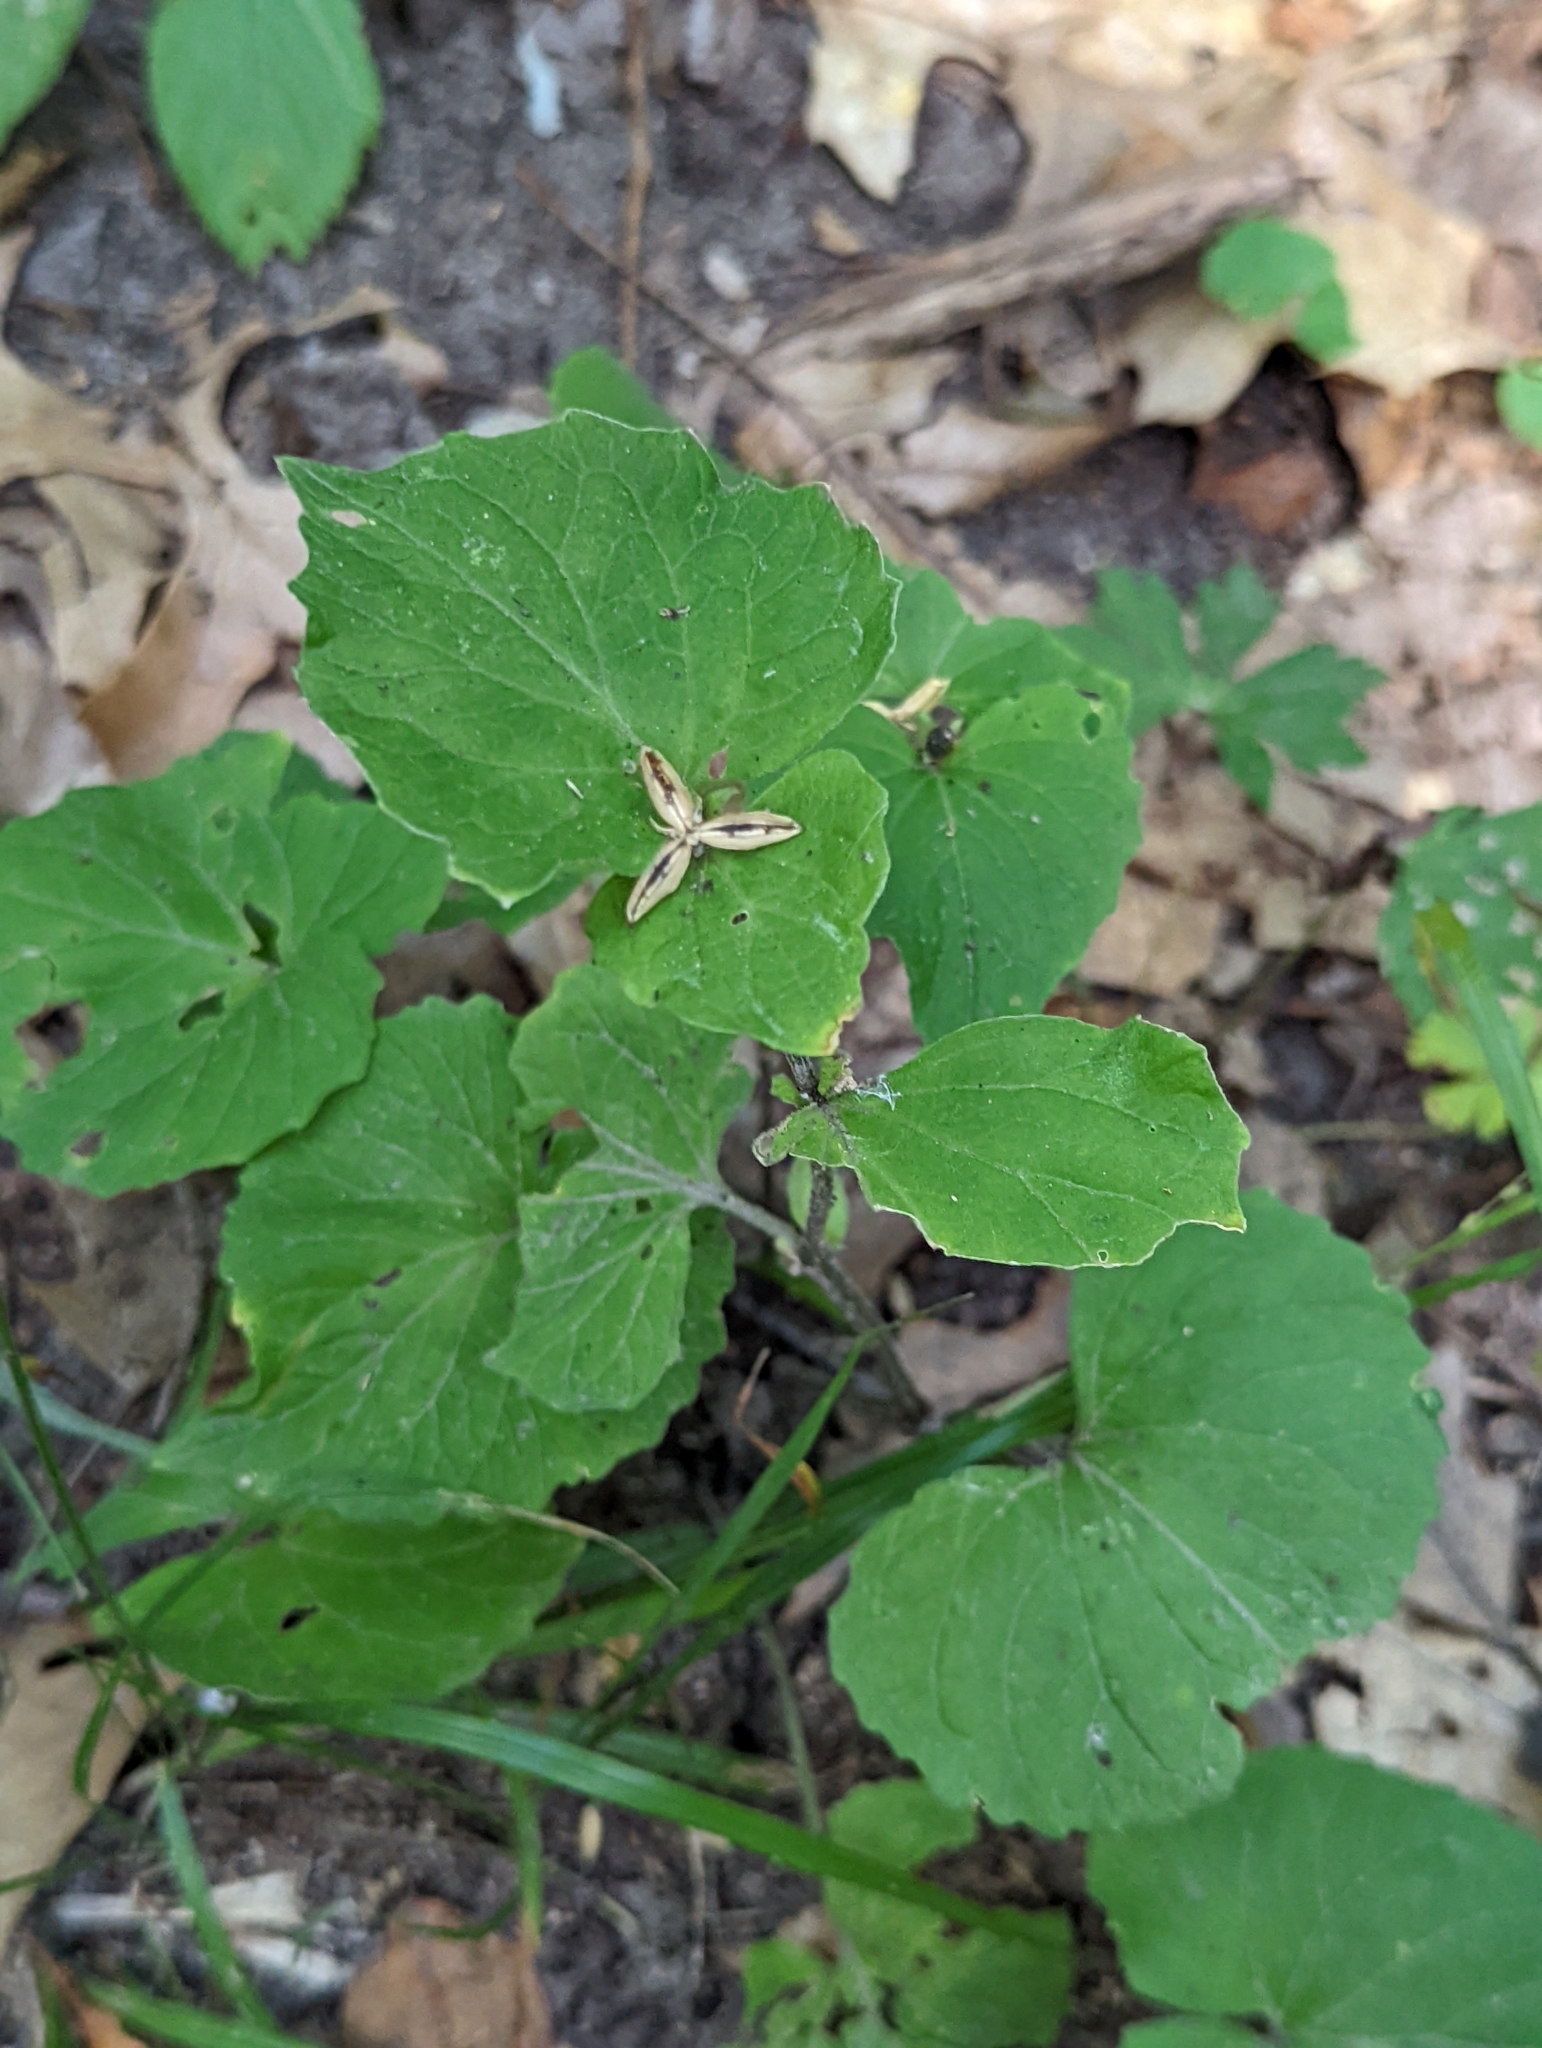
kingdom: Plantae
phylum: Tracheophyta
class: Magnoliopsida
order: Malpighiales
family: Violaceae
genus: Viola
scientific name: Viola eriocarpa
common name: Smooth yellow violet
